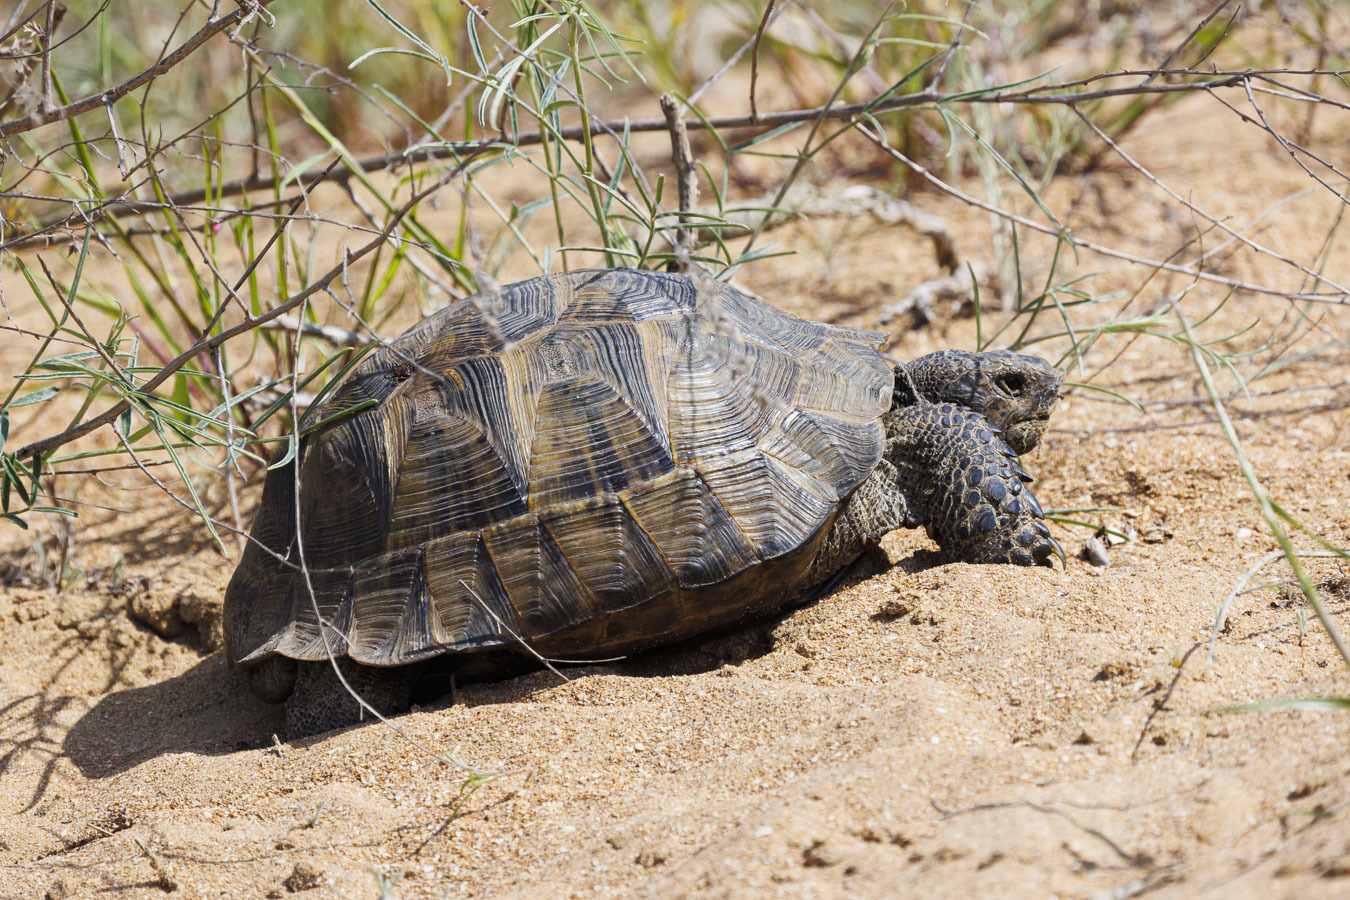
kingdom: Animalia
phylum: Chordata
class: Testudines
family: Testudinidae
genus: Testudo
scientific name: Testudo graeca
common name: Common tortoise
